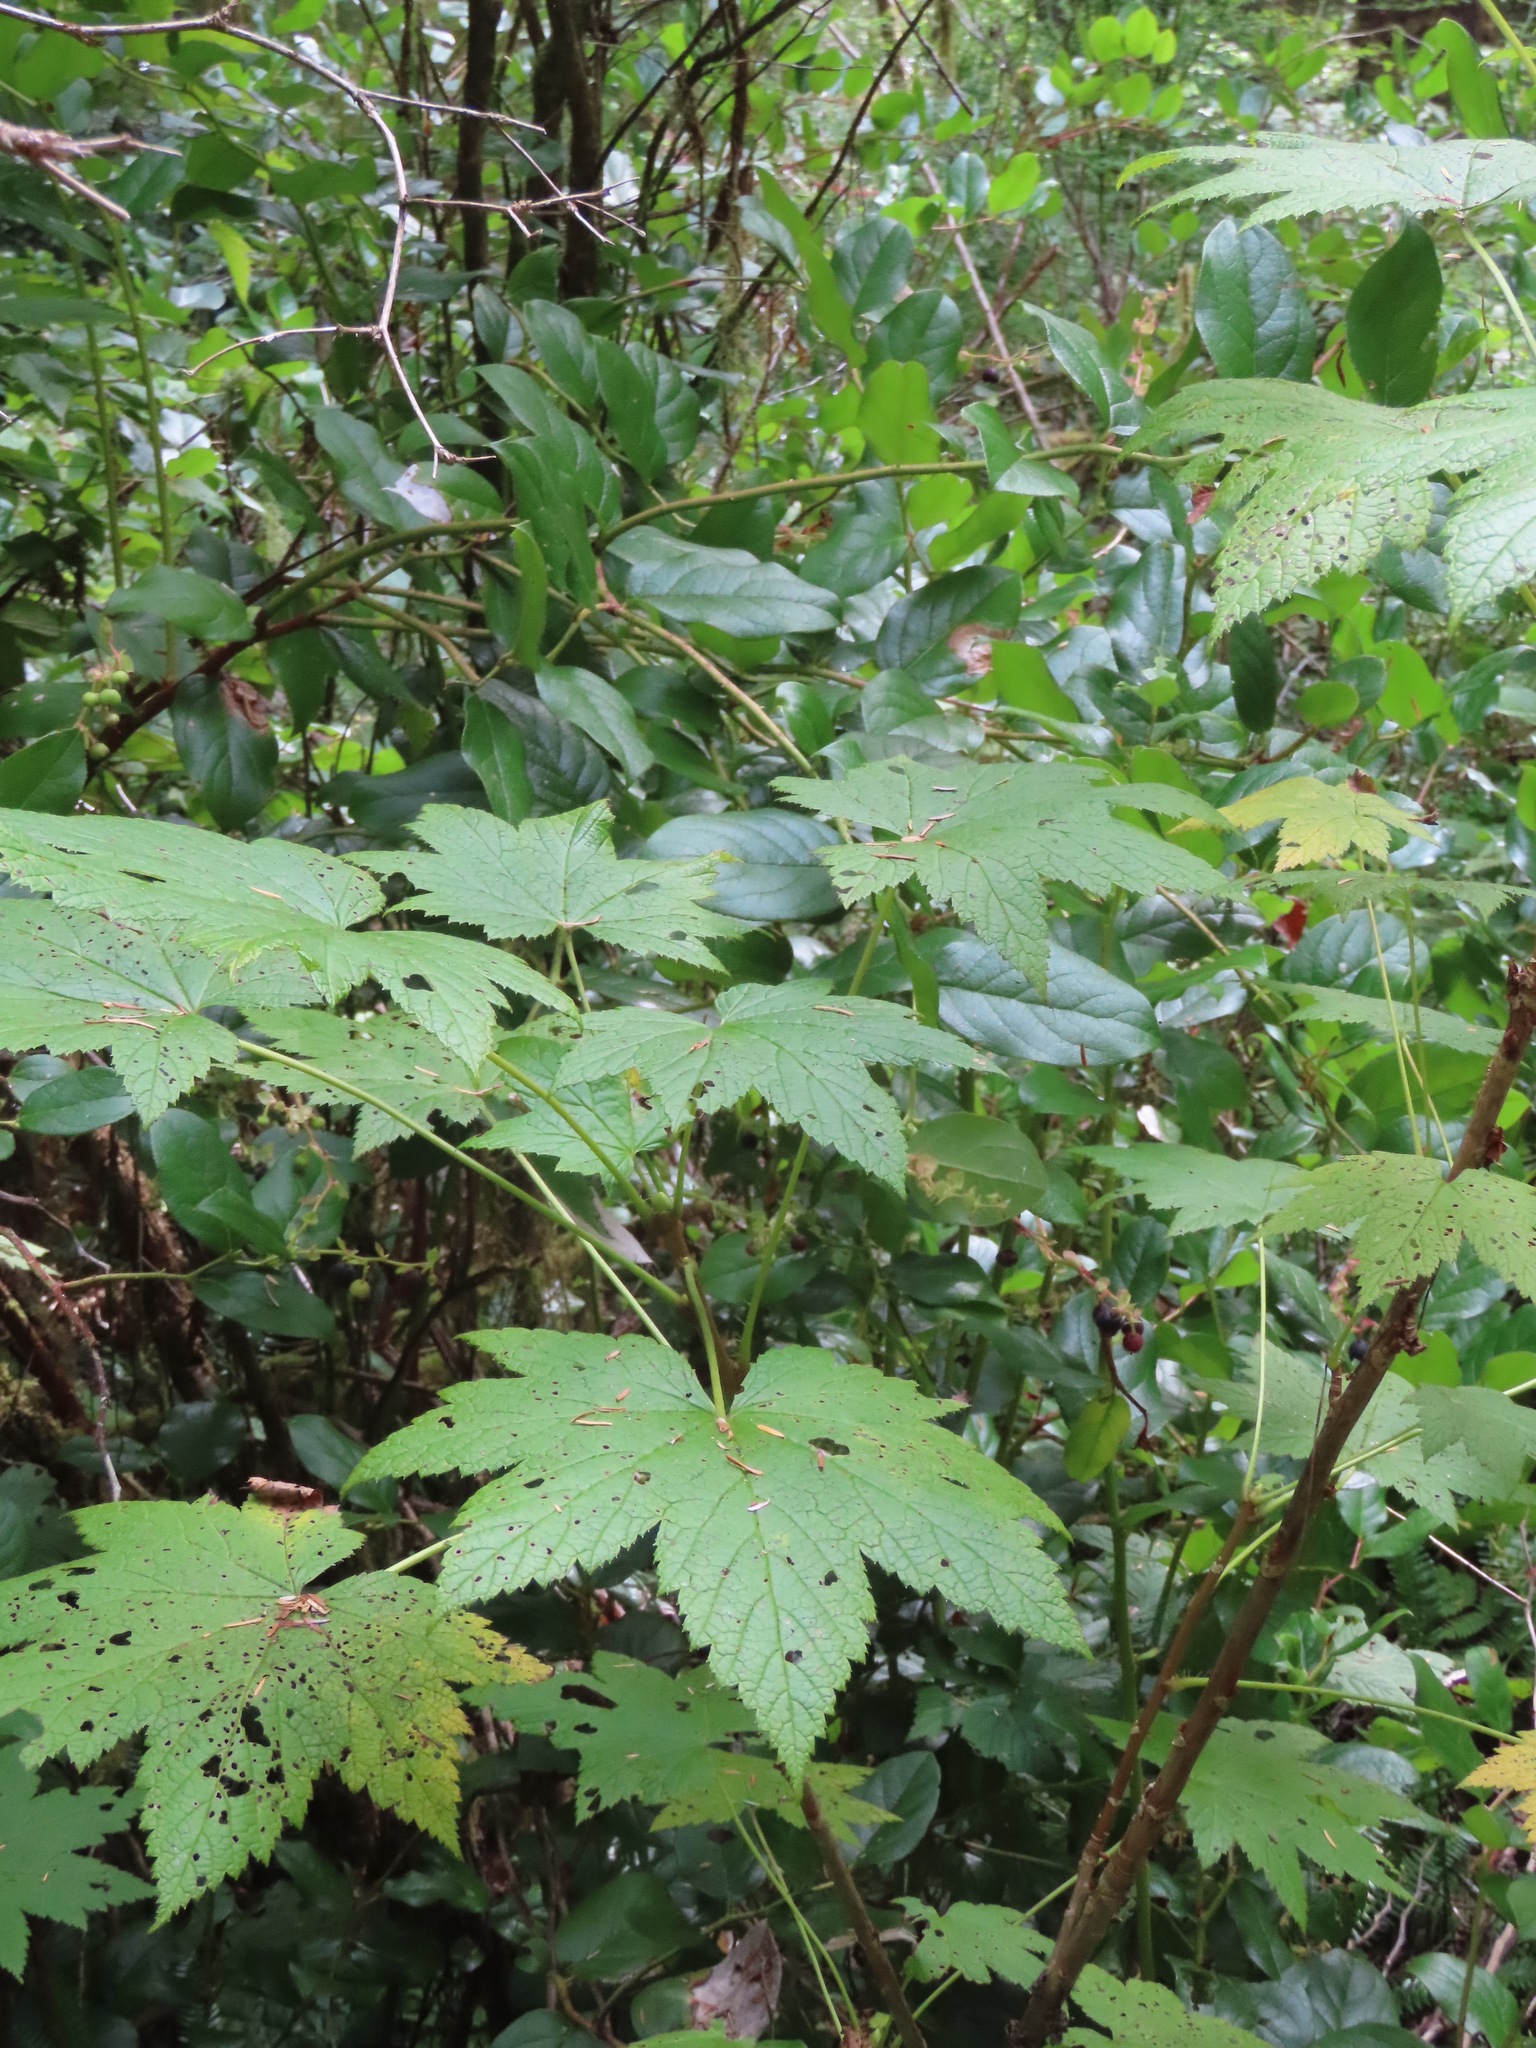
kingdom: Plantae
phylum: Tracheophyta
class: Magnoliopsida
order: Saxifragales
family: Grossulariaceae
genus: Ribes
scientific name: Ribes bracteosum
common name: California black currant
